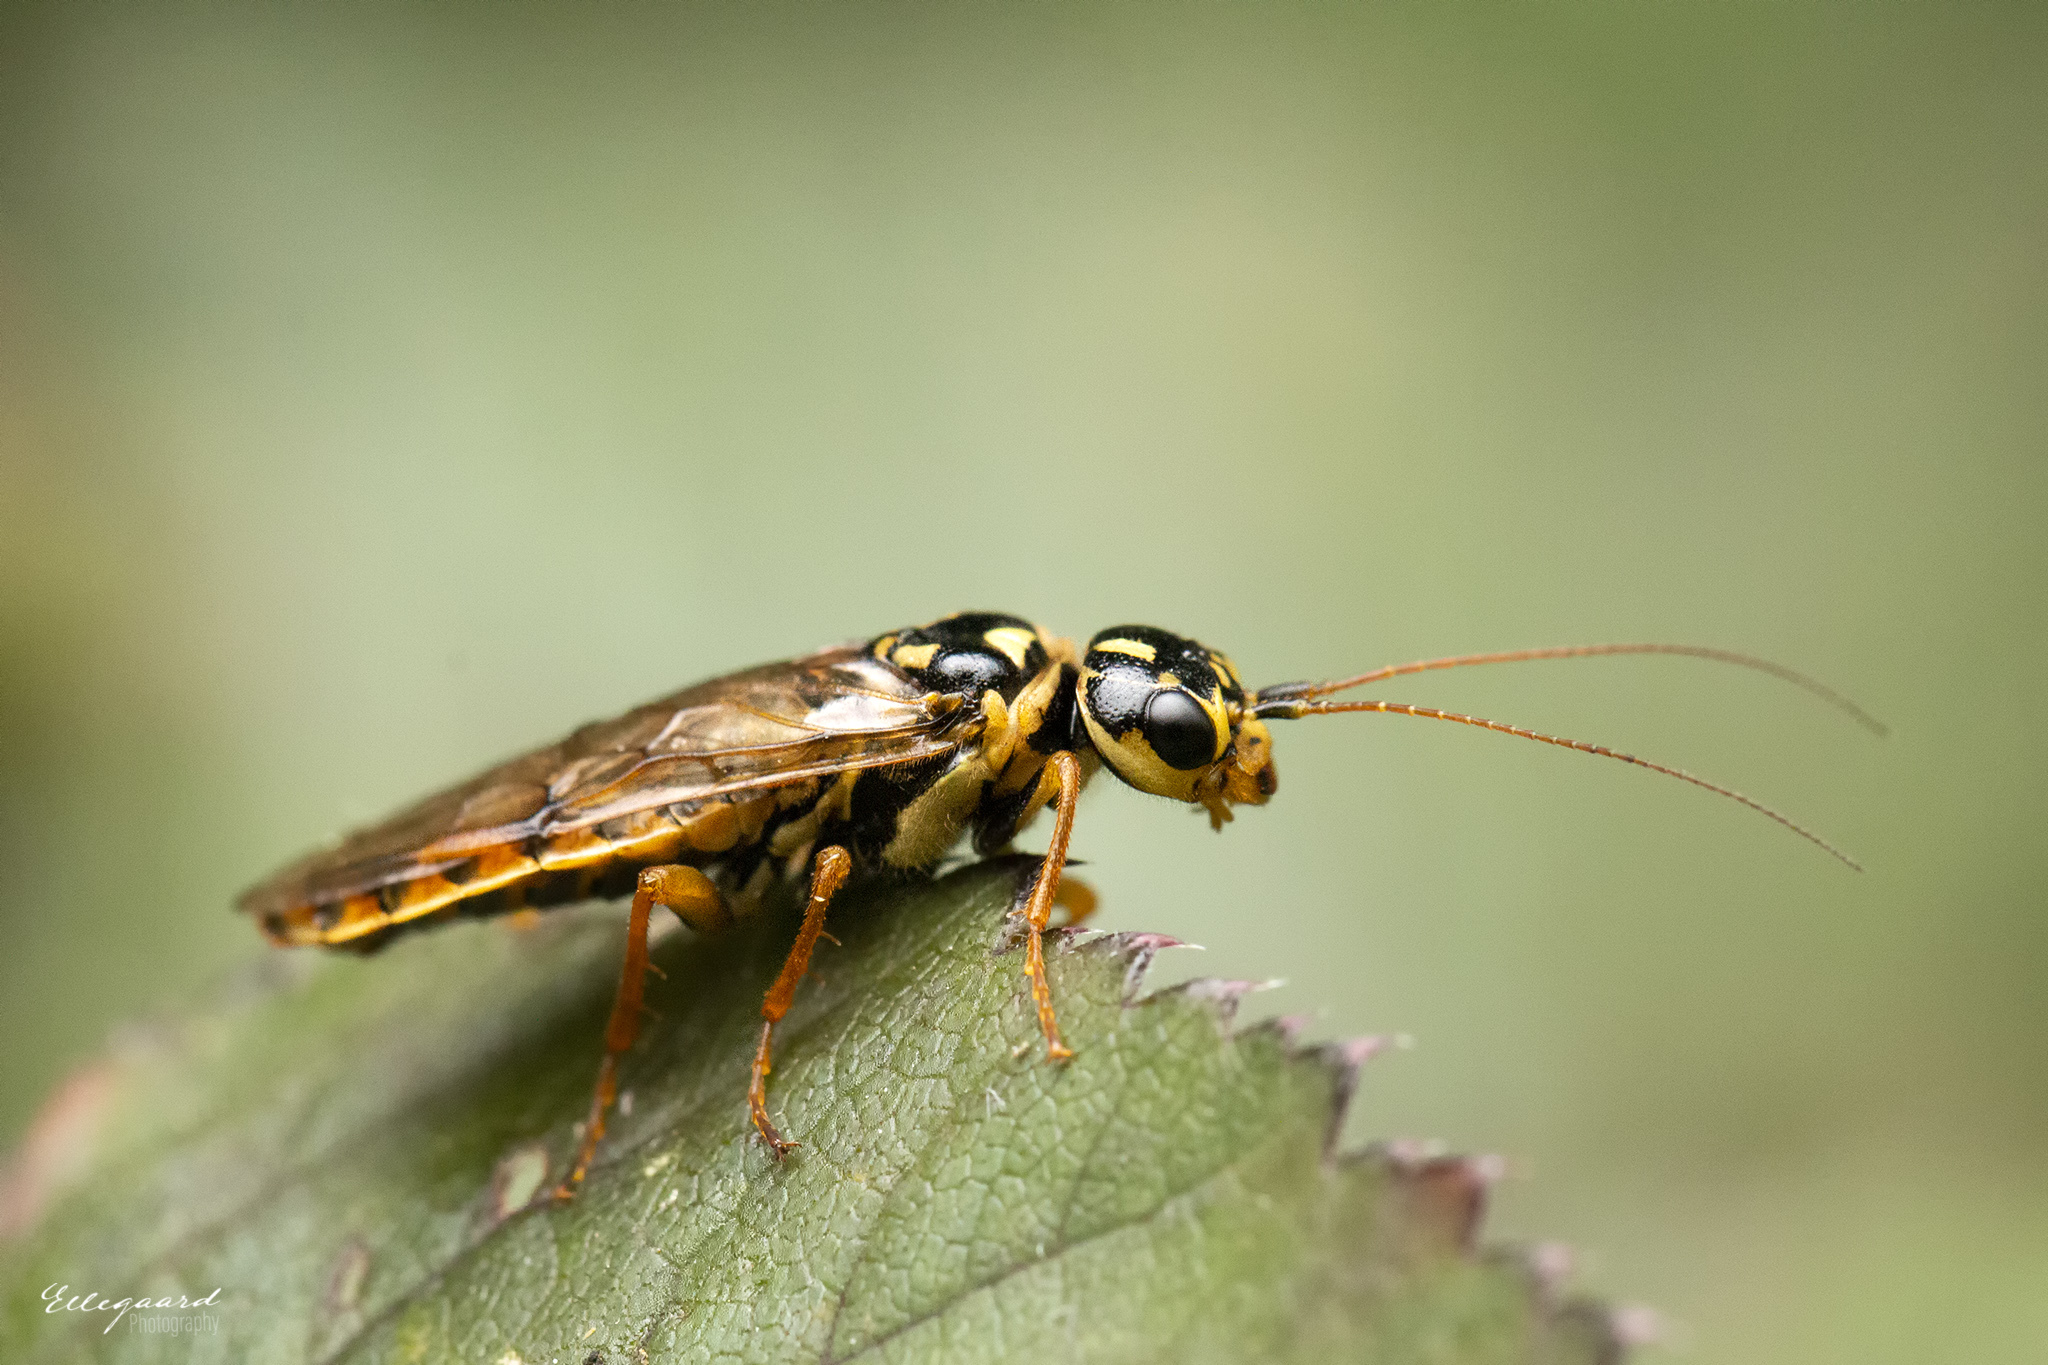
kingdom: Animalia
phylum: Arthropoda
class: Insecta
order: Hymenoptera
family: Pamphiliidae
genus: Acantholyda
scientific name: Acantholyda posticalis
